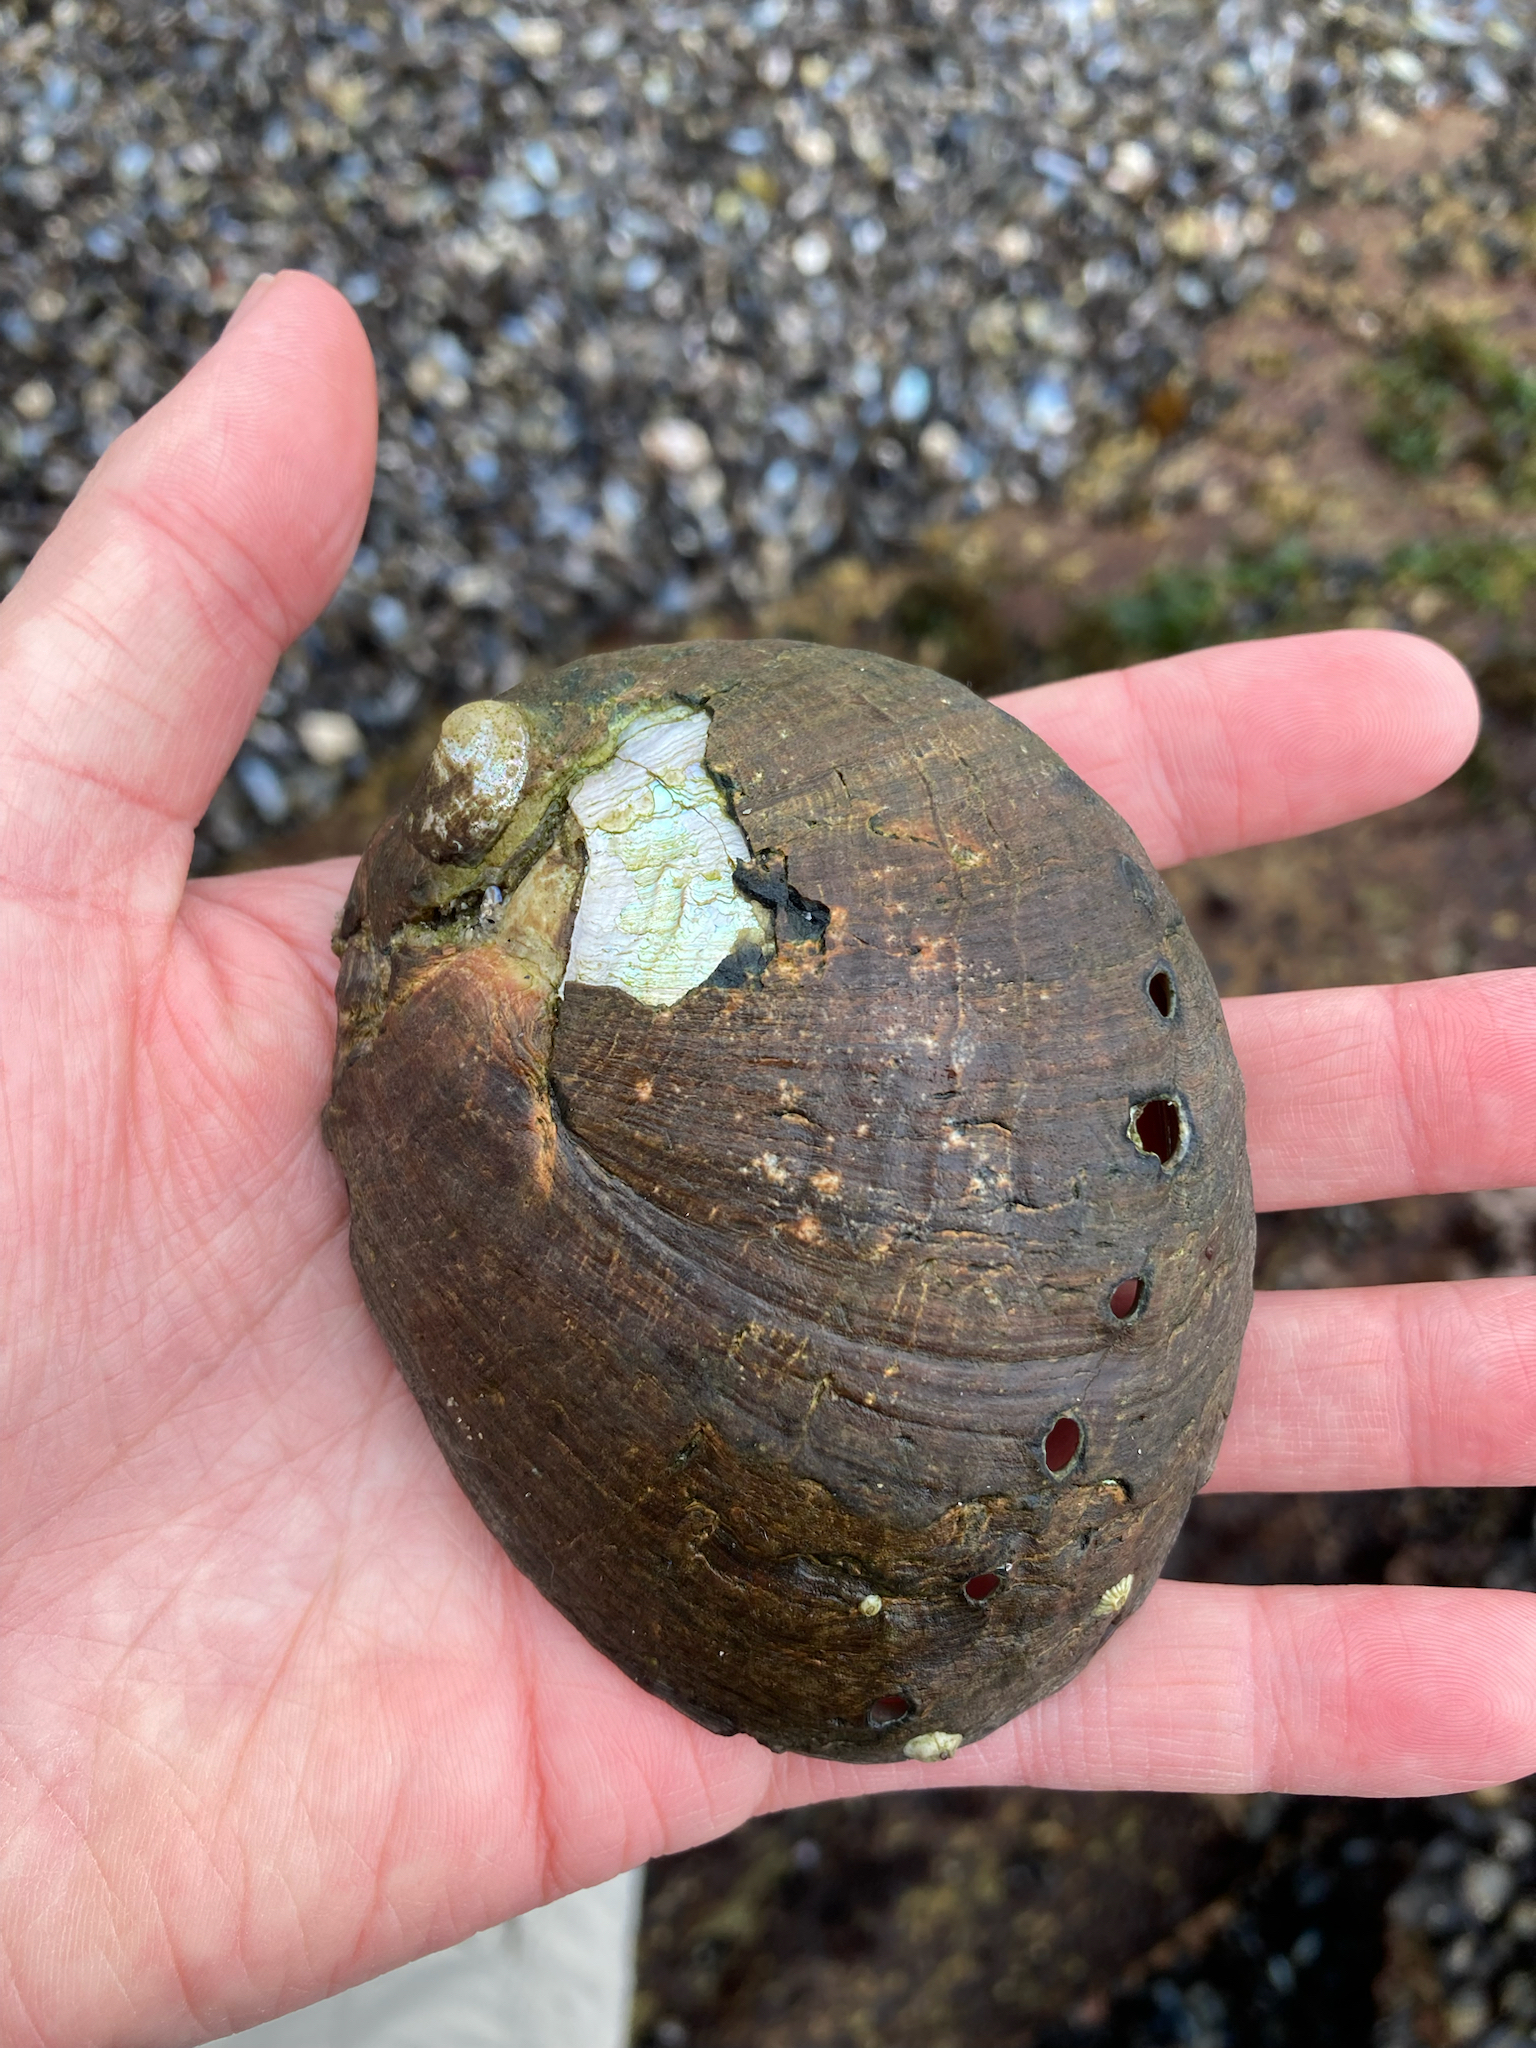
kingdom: Animalia
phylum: Mollusca
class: Gastropoda
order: Lepetellida
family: Haliotidae
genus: Haliotis
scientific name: Haliotis cracherodii
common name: Black abalone
